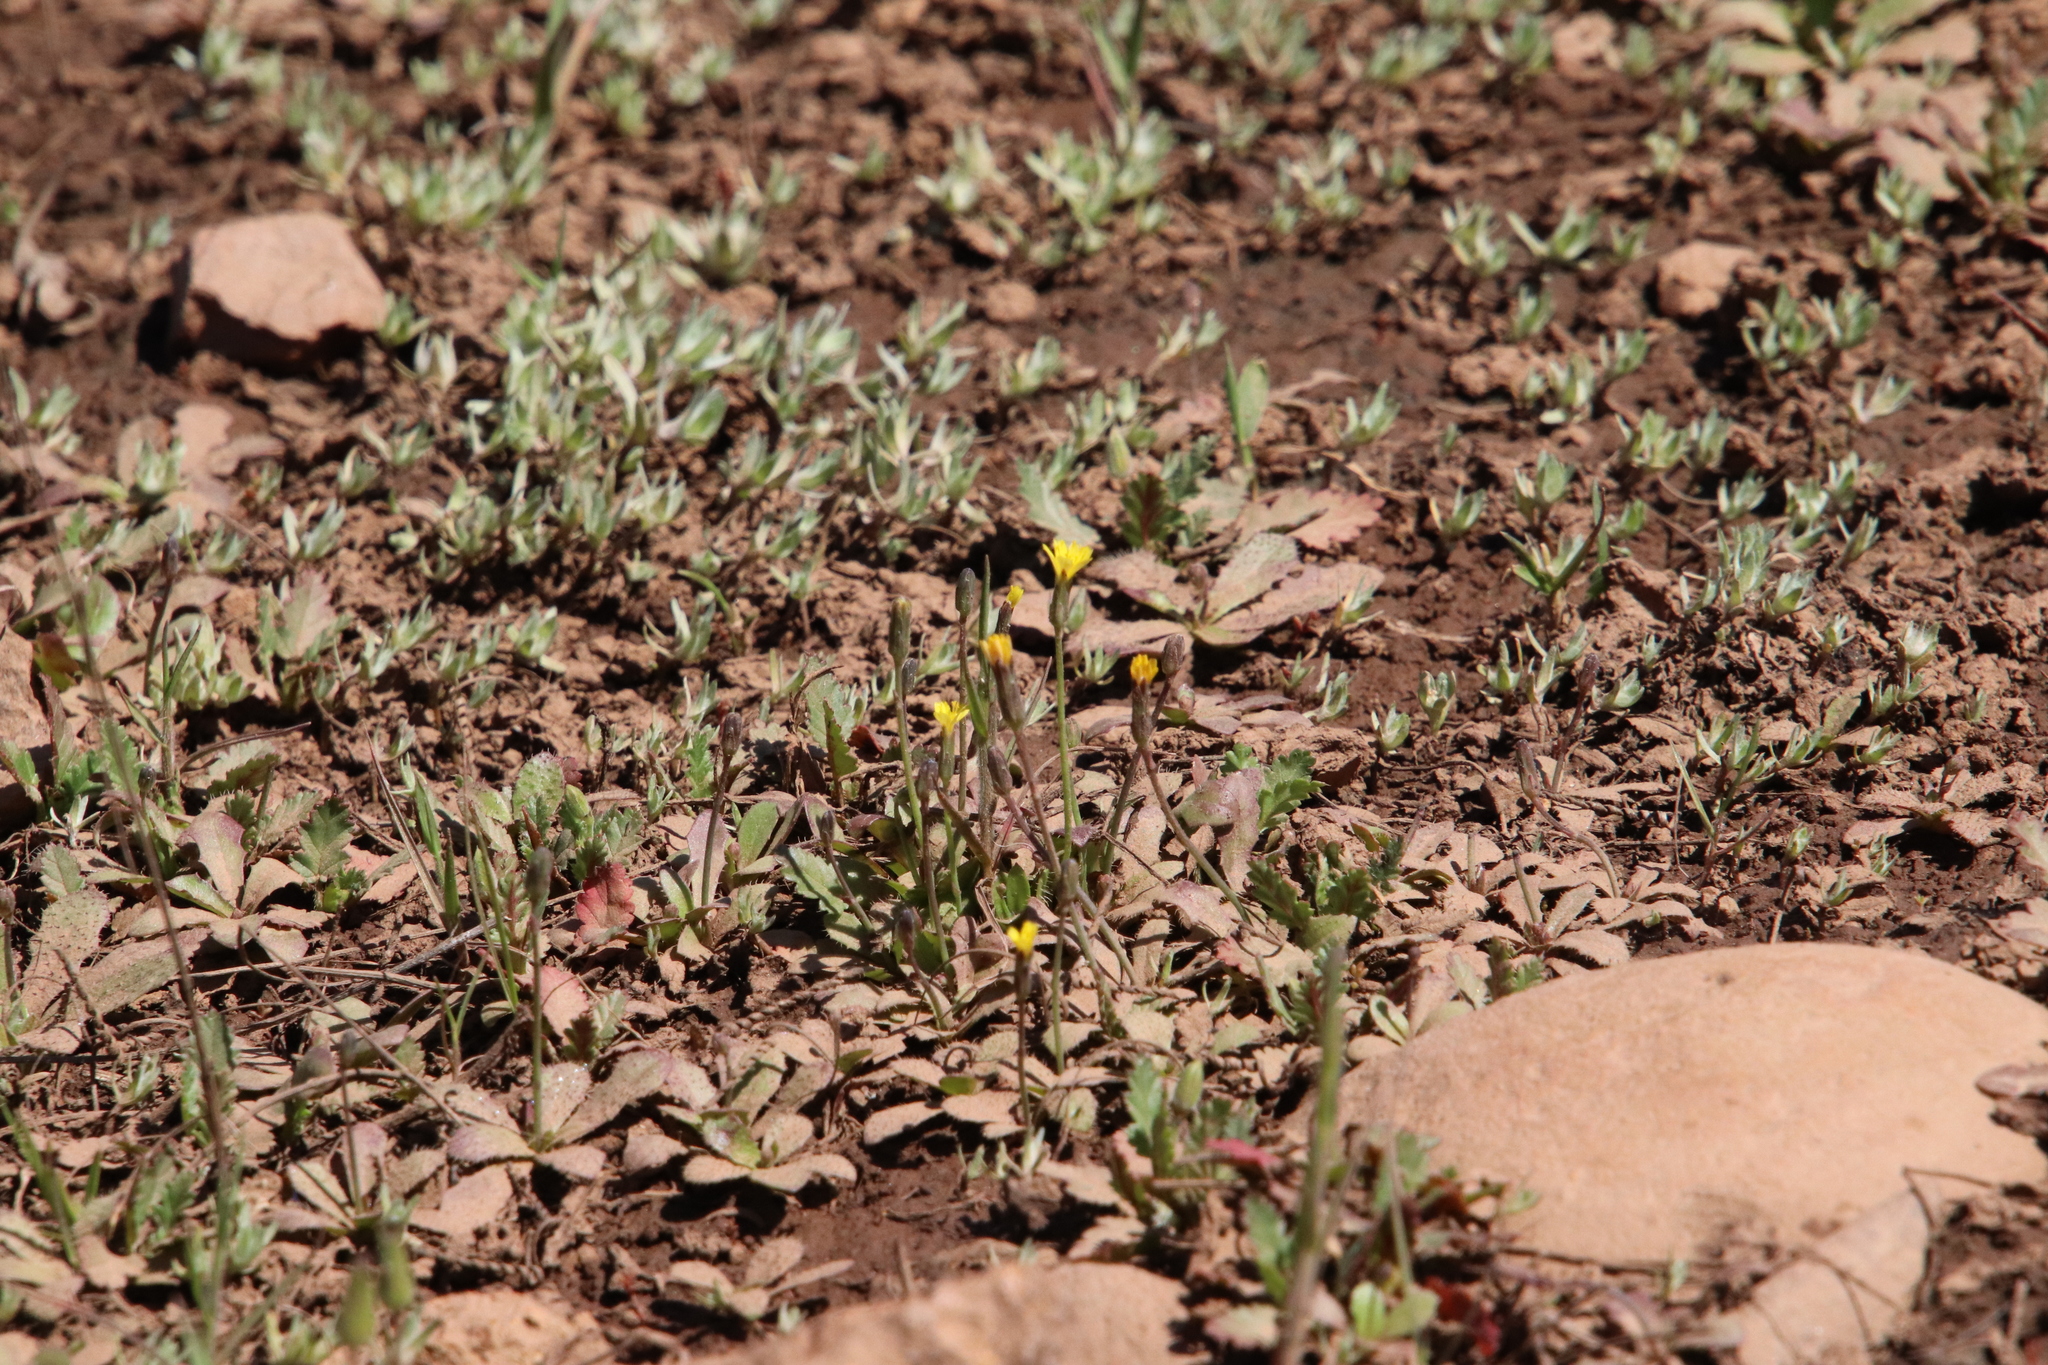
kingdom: Plantae
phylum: Tracheophyta
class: Magnoliopsida
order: Asterales
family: Asteraceae
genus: Hypochaeris
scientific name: Hypochaeris glabra
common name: Smooth catsear
